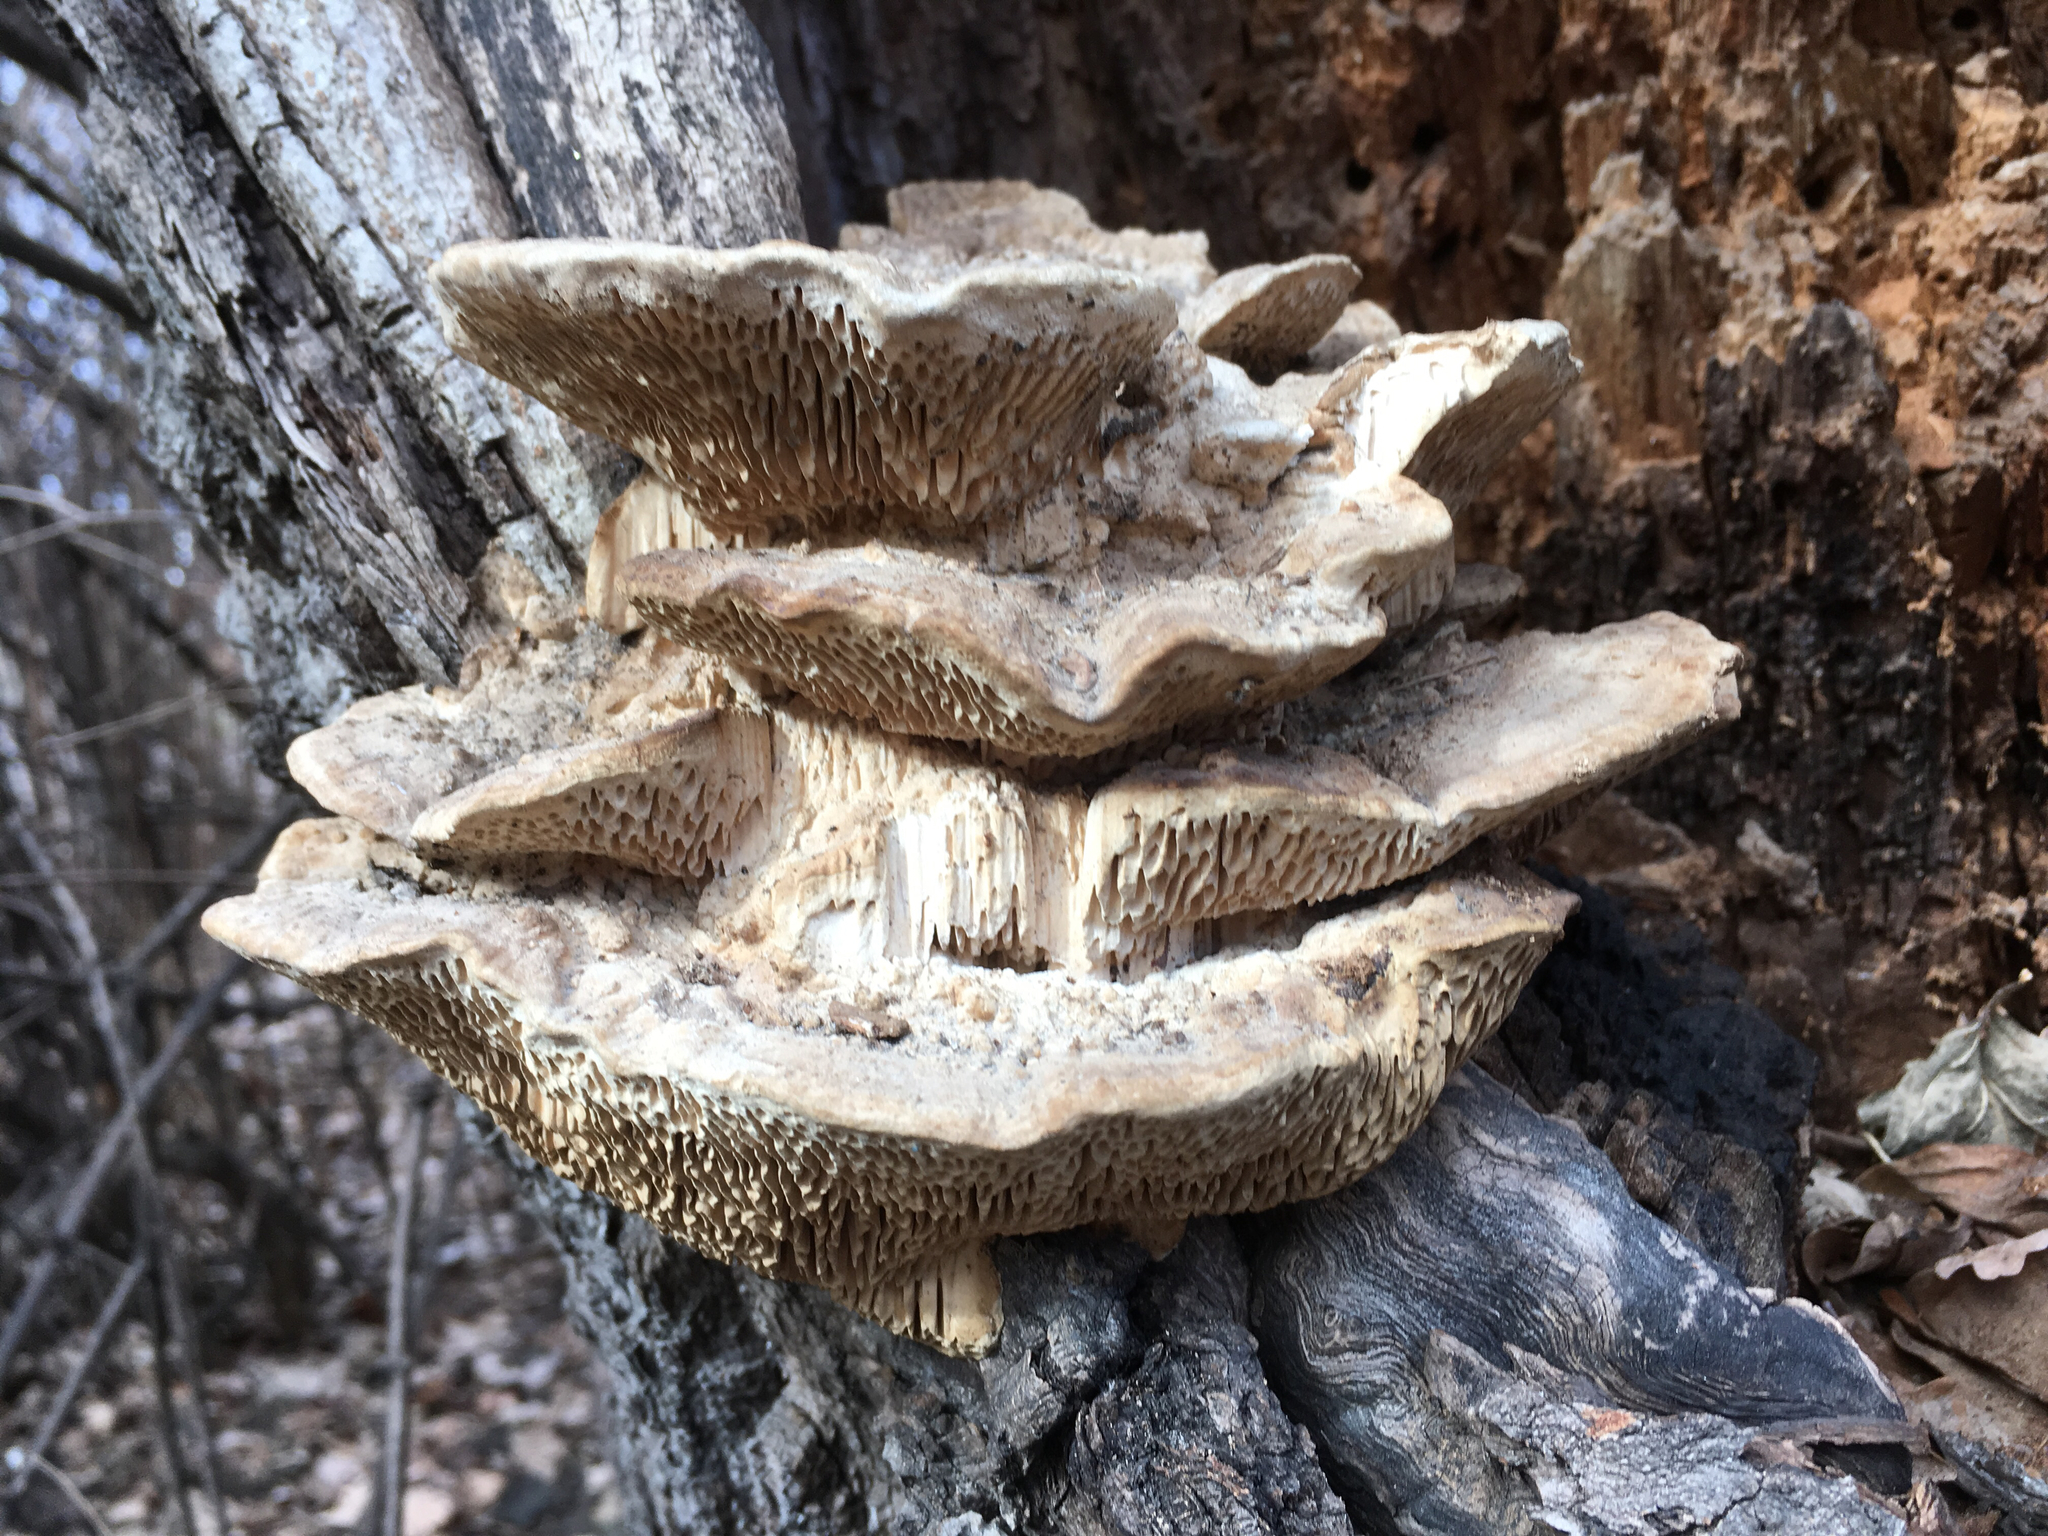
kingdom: Fungi
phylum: Basidiomycota
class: Agaricomycetes
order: Polyporales
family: Fomitopsidaceae
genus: Fomitopsis
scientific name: Fomitopsis
